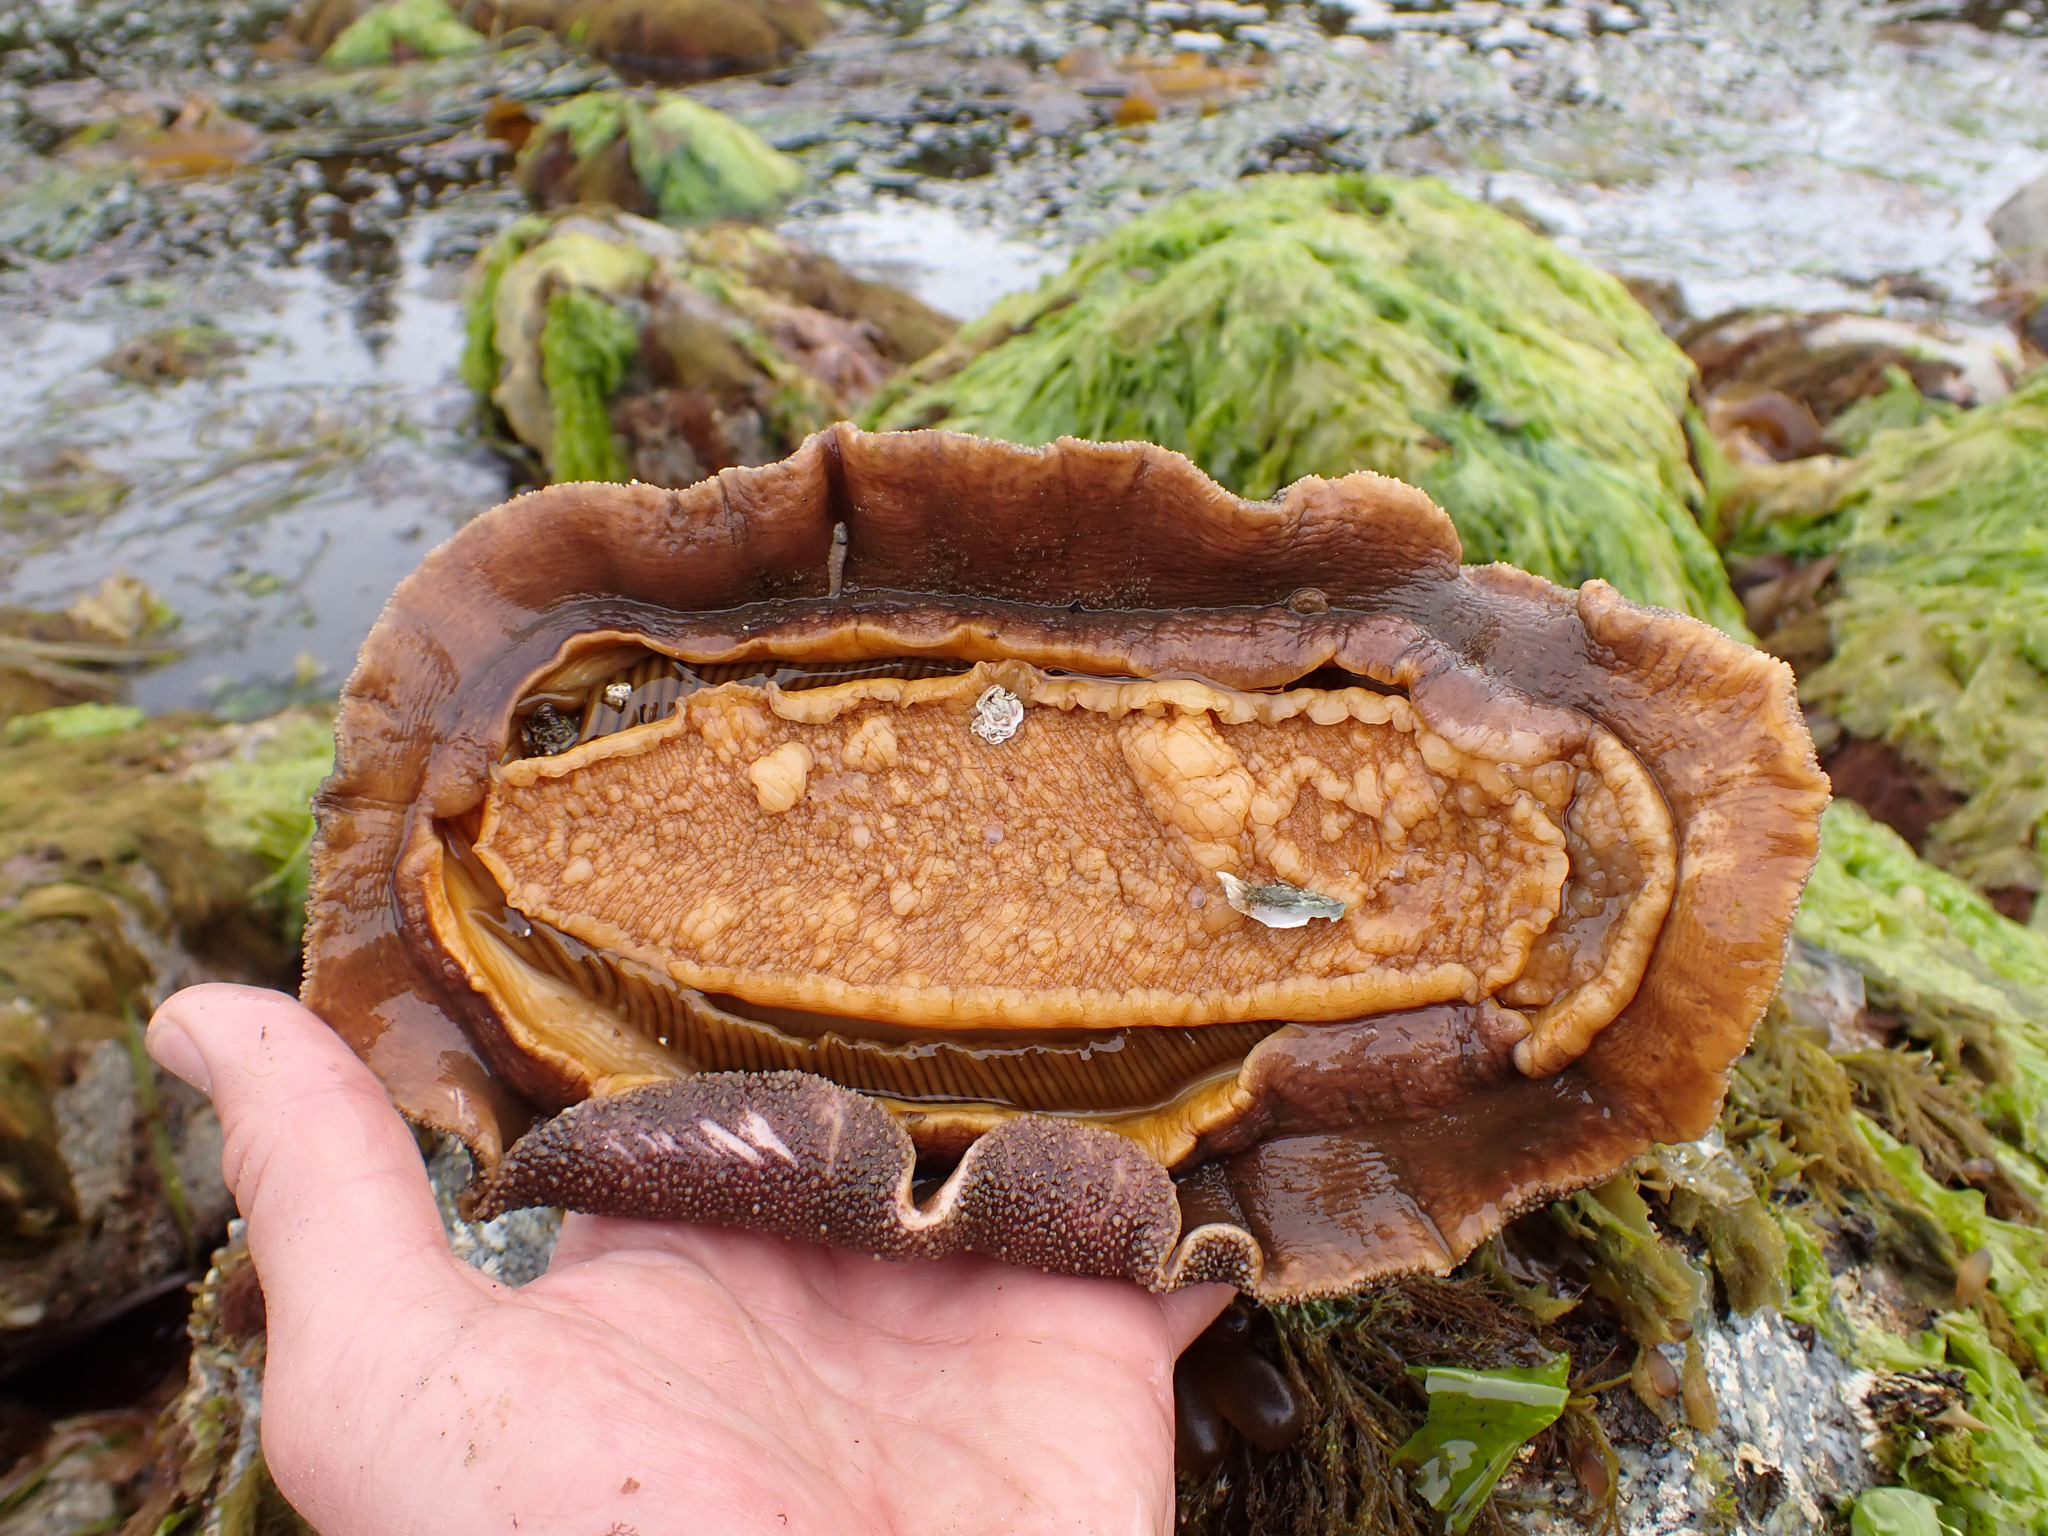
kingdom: Animalia
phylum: Mollusca
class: Polyplacophora
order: Chitonida
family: Acanthochitonidae
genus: Cryptochiton
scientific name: Cryptochiton stelleri
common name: Giant pacific chiton
